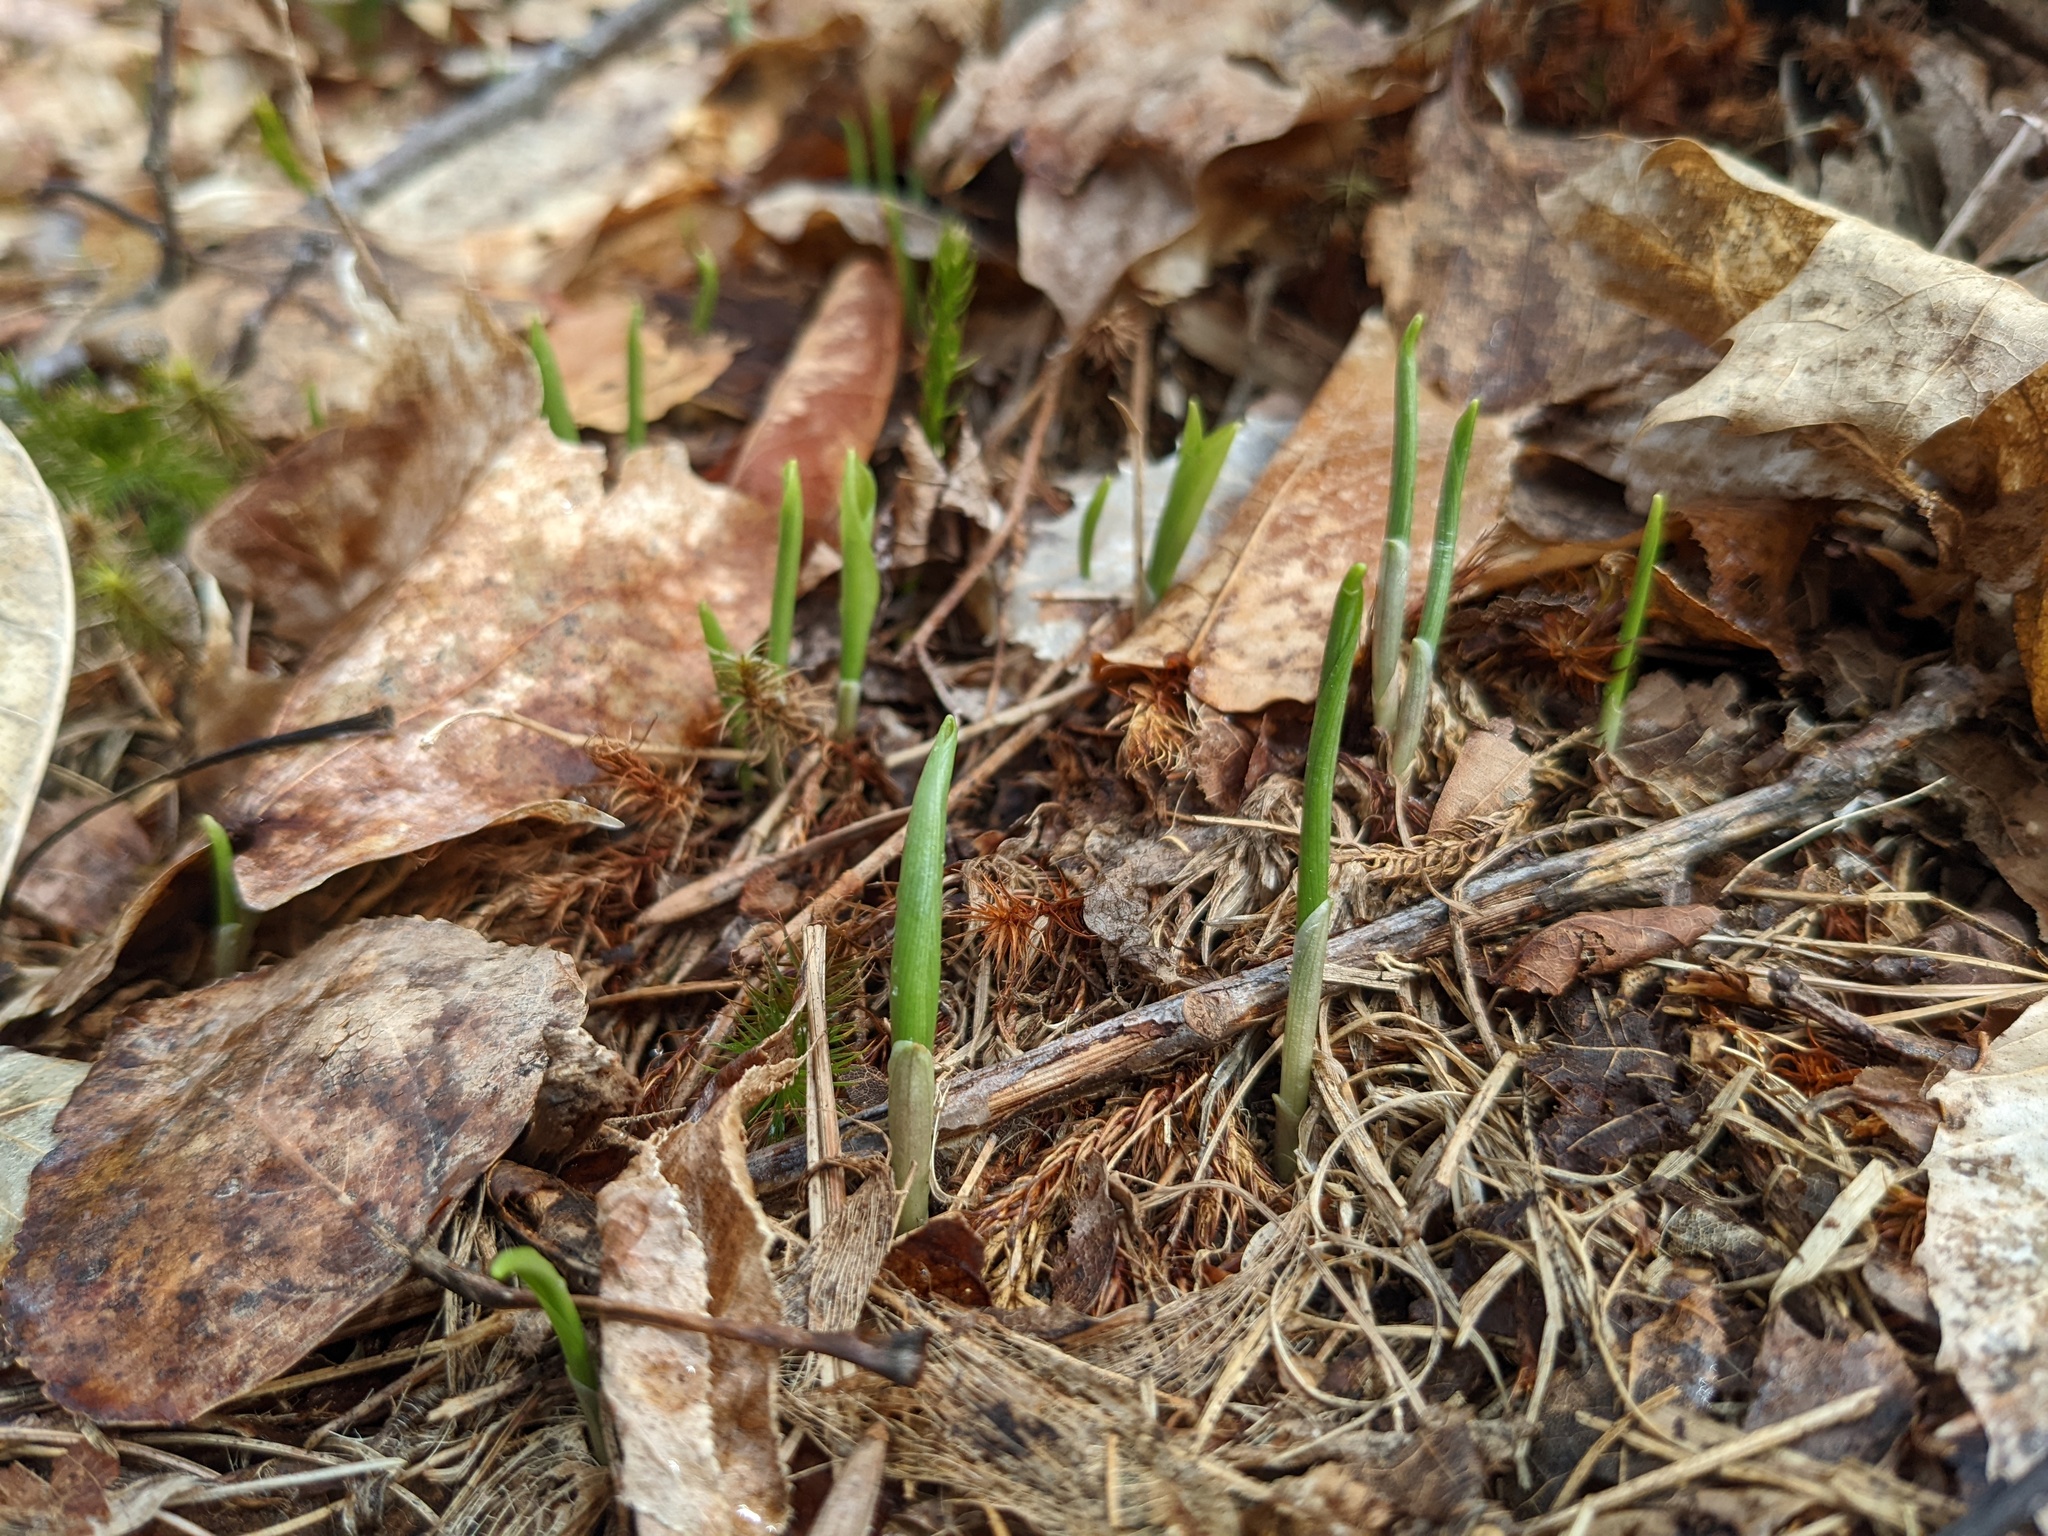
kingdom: Plantae
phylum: Tracheophyta
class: Liliopsida
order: Asparagales
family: Asparagaceae
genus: Maianthemum
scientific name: Maianthemum canadense
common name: False lily-of-the-valley
